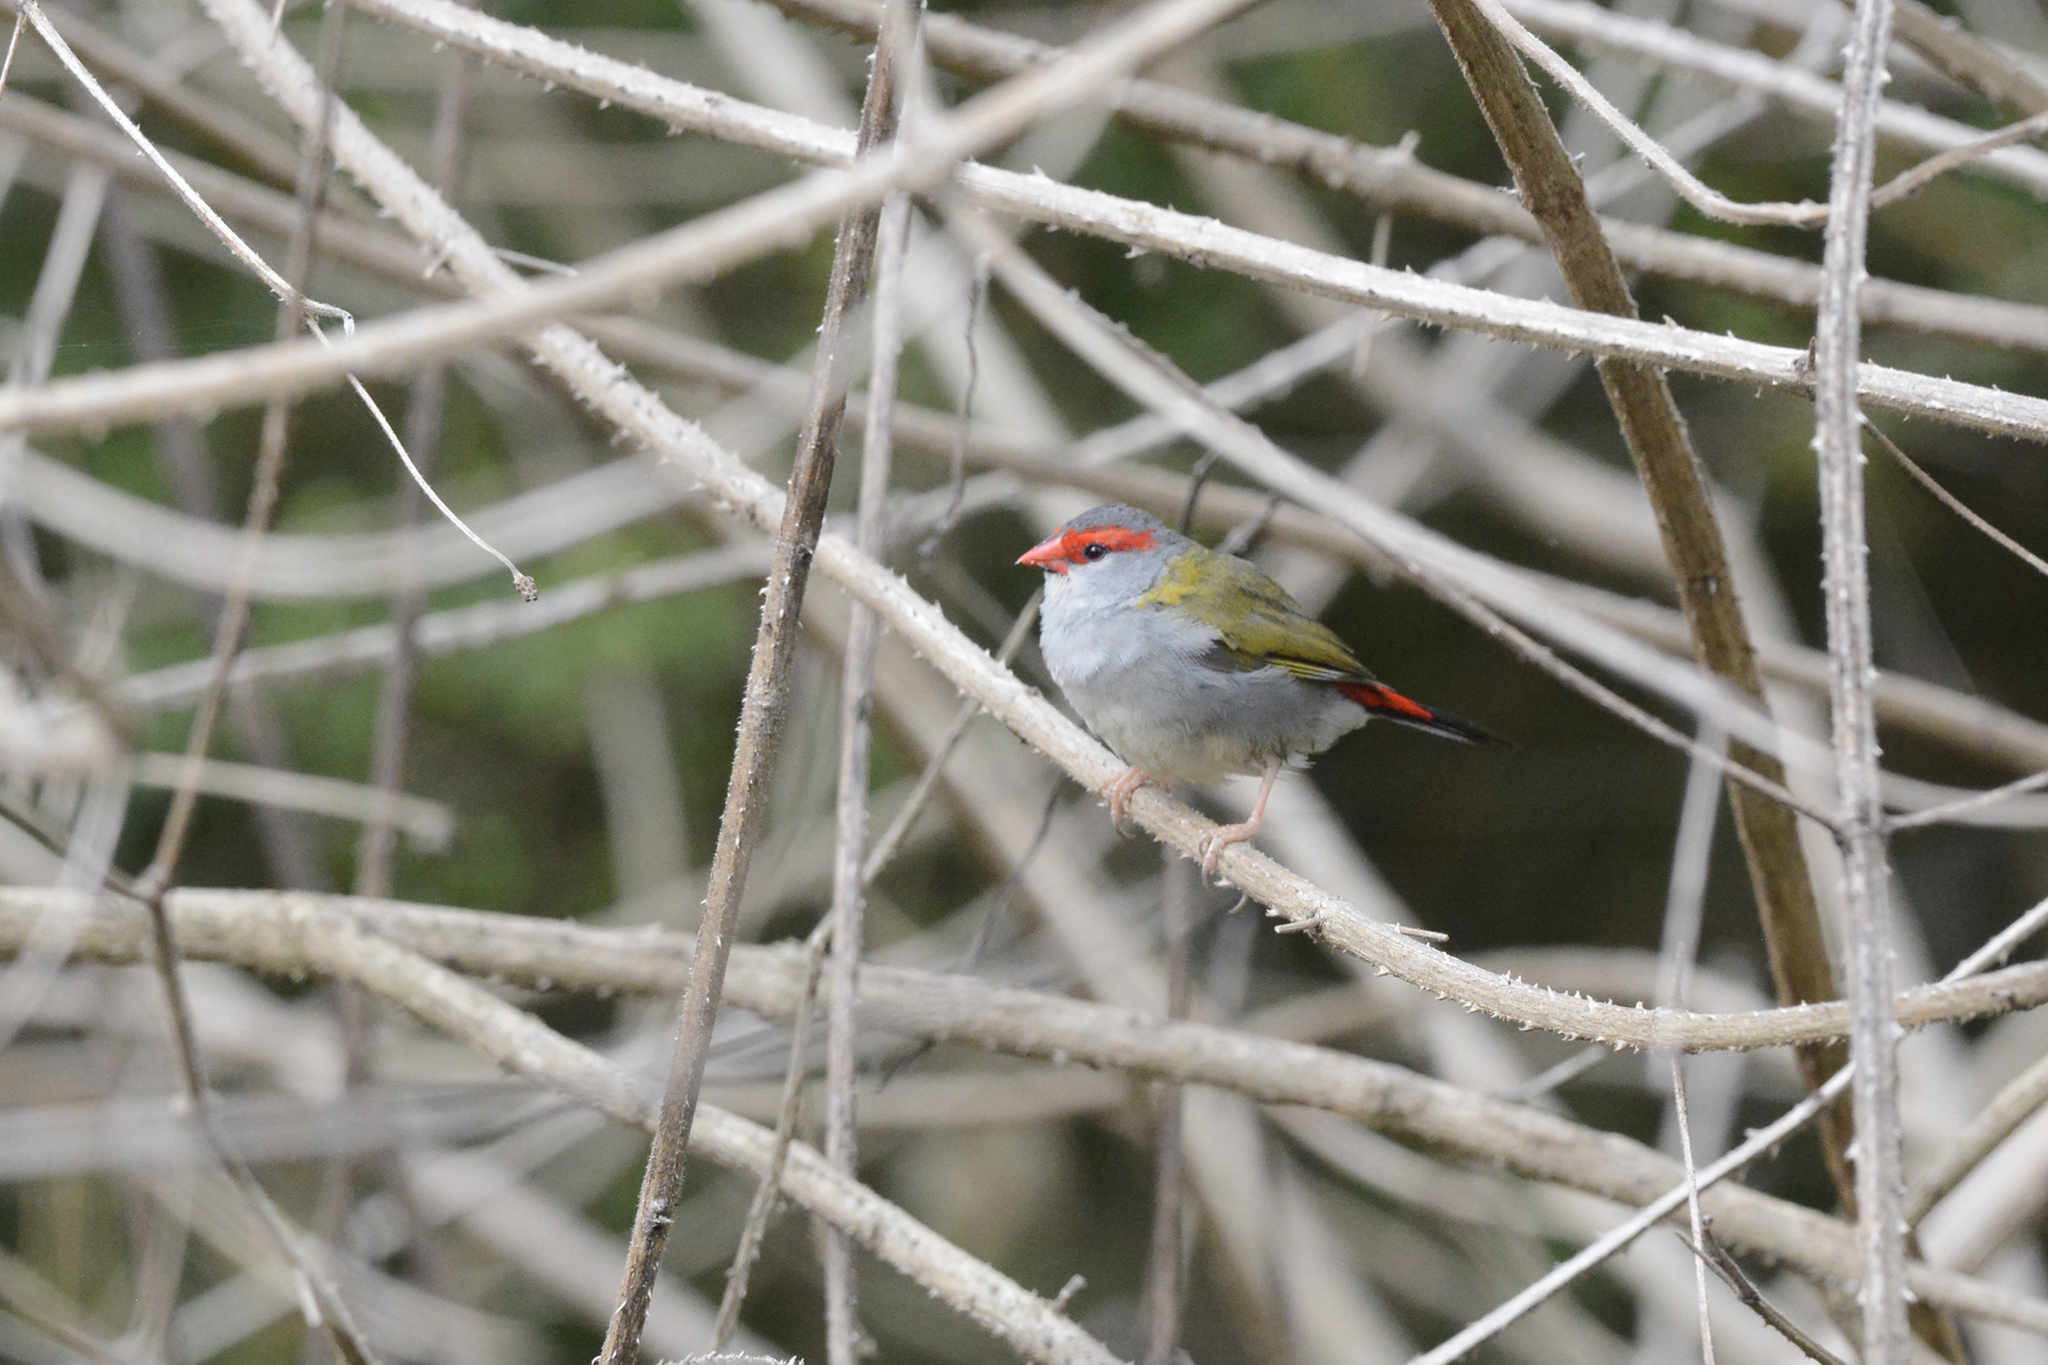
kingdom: Animalia
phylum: Chordata
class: Aves
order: Passeriformes
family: Estrildidae
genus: Neochmia
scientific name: Neochmia temporalis
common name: Red-browed finch
